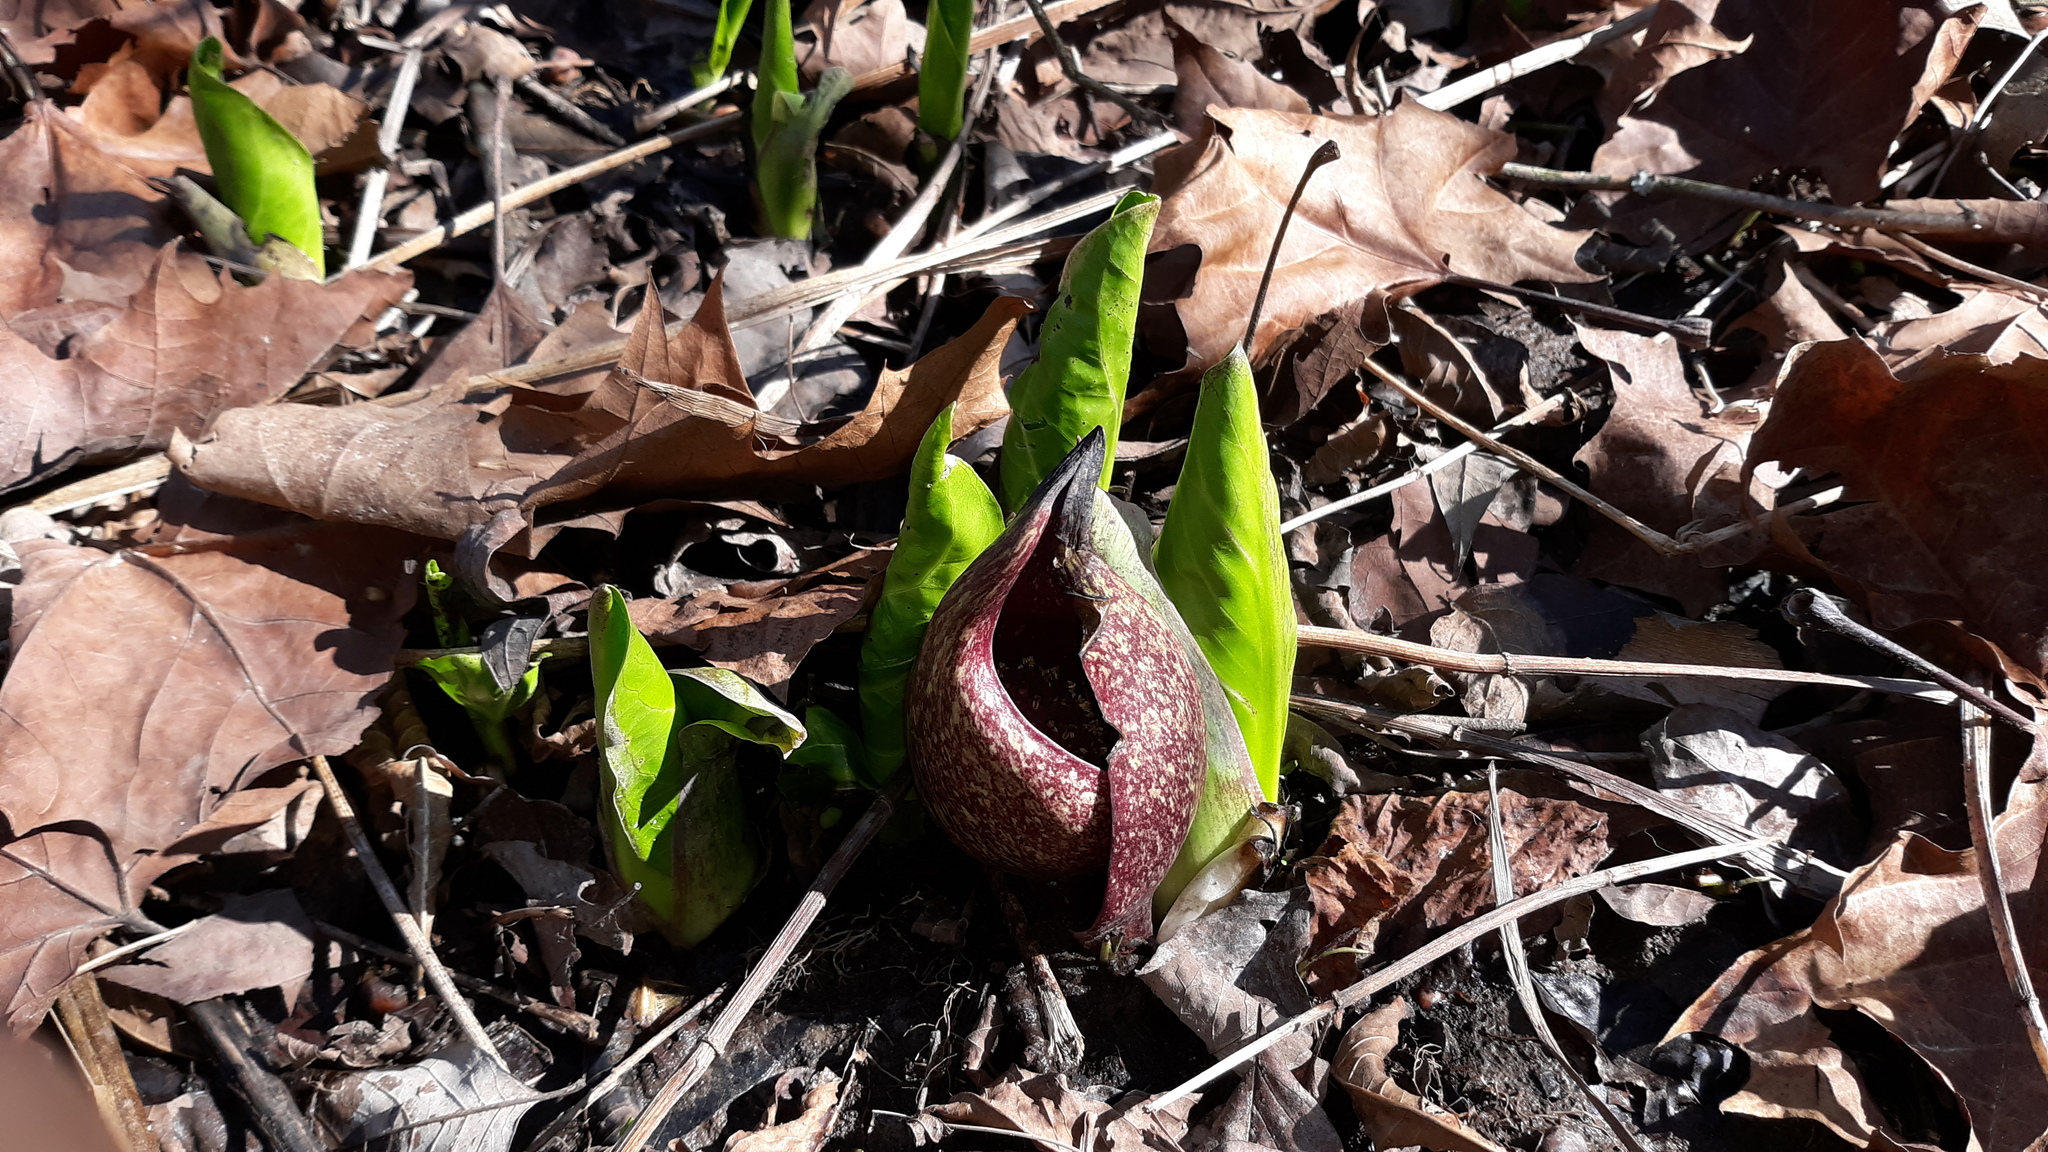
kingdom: Plantae
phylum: Tracheophyta
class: Liliopsida
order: Alismatales
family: Araceae
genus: Symplocarpus
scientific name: Symplocarpus foetidus
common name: Eastern skunk cabbage
